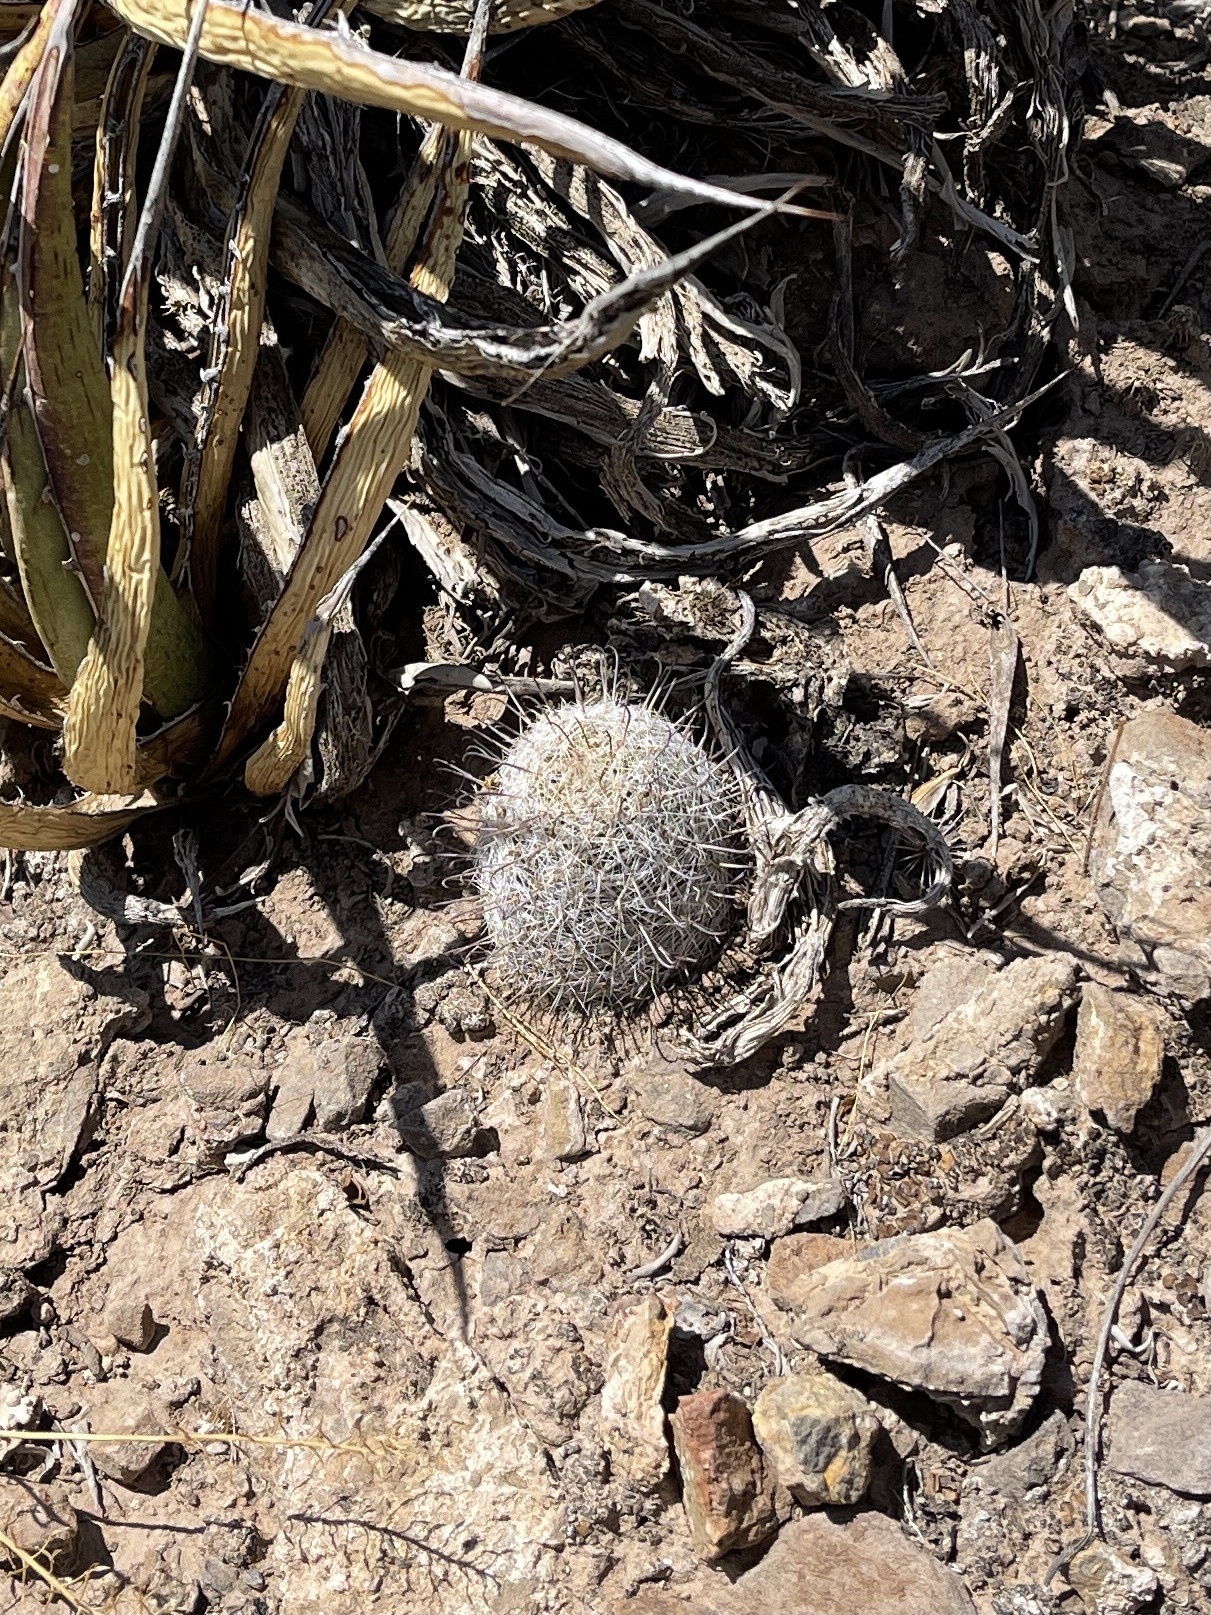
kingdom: Plantae
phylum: Tracheophyta
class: Magnoliopsida
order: Caryophyllales
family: Cactaceae
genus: Cochemiea
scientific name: Cochemiea grahamii
